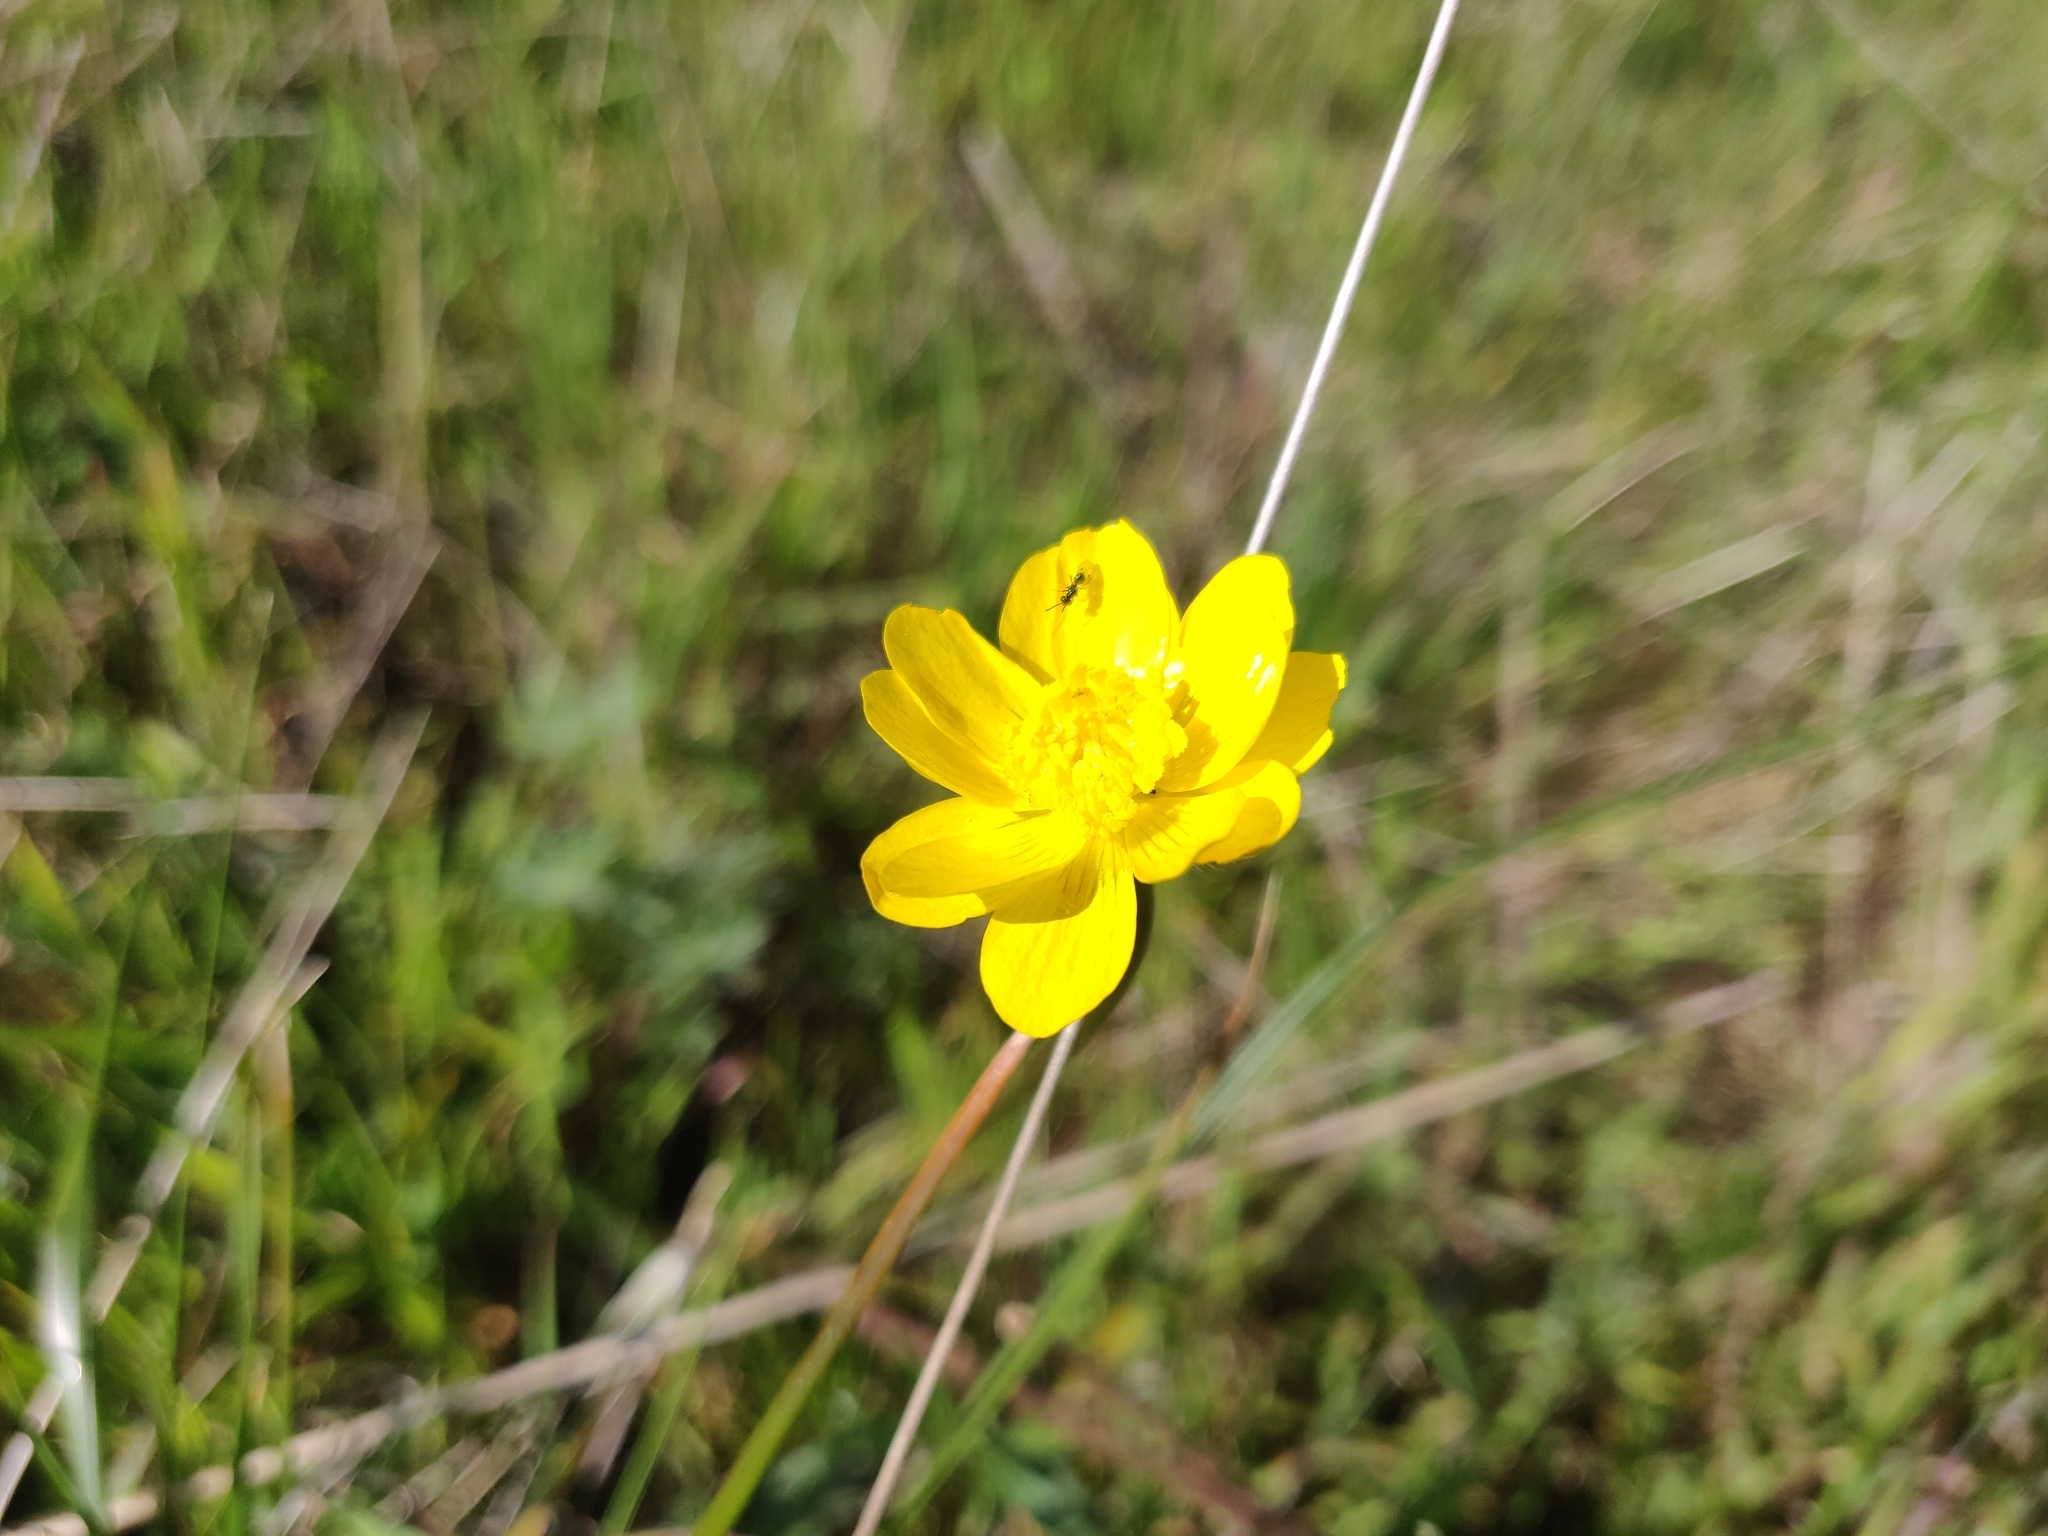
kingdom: Plantae
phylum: Tracheophyta
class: Magnoliopsida
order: Ranunculales
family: Ranunculaceae
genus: Ranunculus
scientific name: Ranunculus californicus
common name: California buttercup
